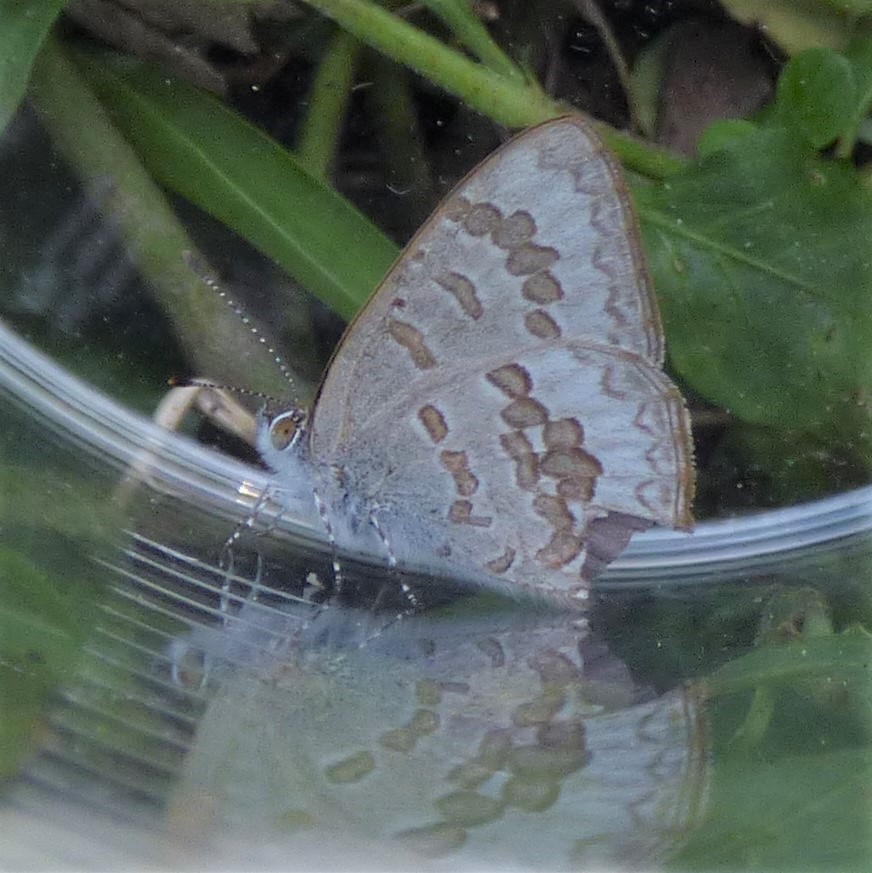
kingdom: Animalia
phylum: Arthropoda
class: Insecta
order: Lepidoptera
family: Lycaenidae
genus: Catopyrops
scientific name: Catopyrops florinda
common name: Speckled line-blue
